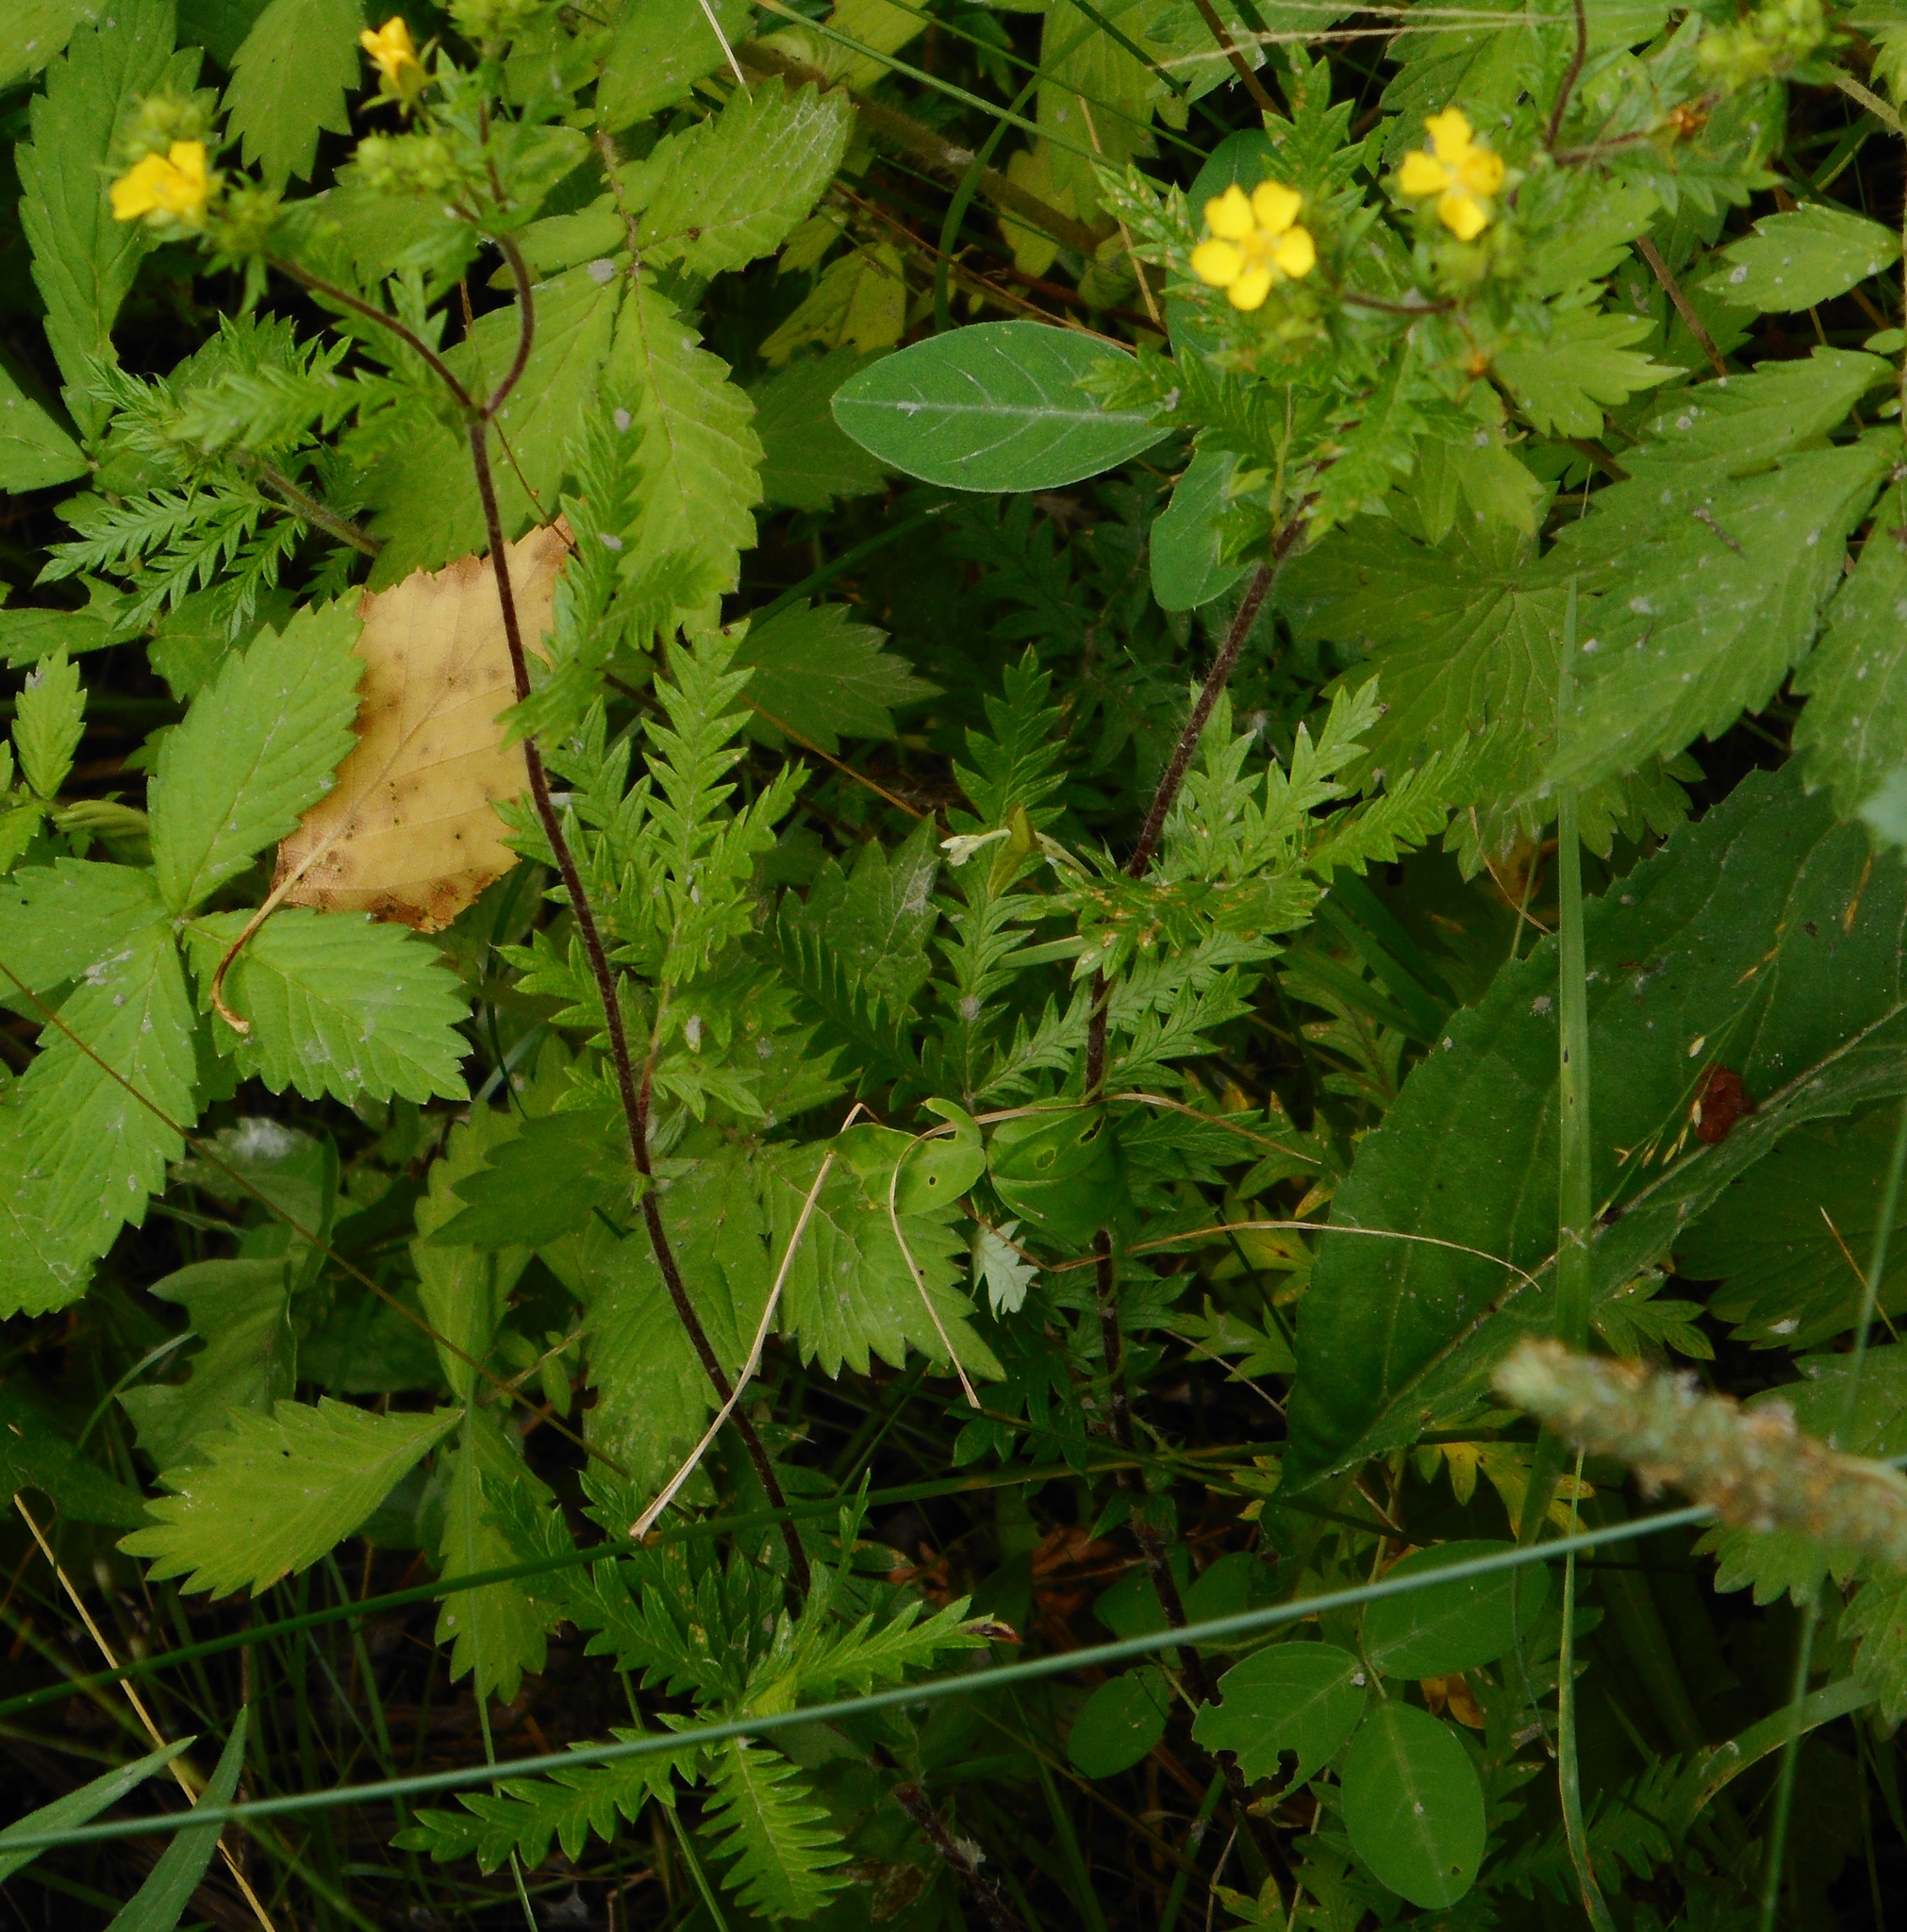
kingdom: Plantae
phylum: Tracheophyta
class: Magnoliopsida
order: Rosales
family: Rosaceae
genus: Potentilla
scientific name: Potentilla chinensis
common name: Chinese cinquefoil
